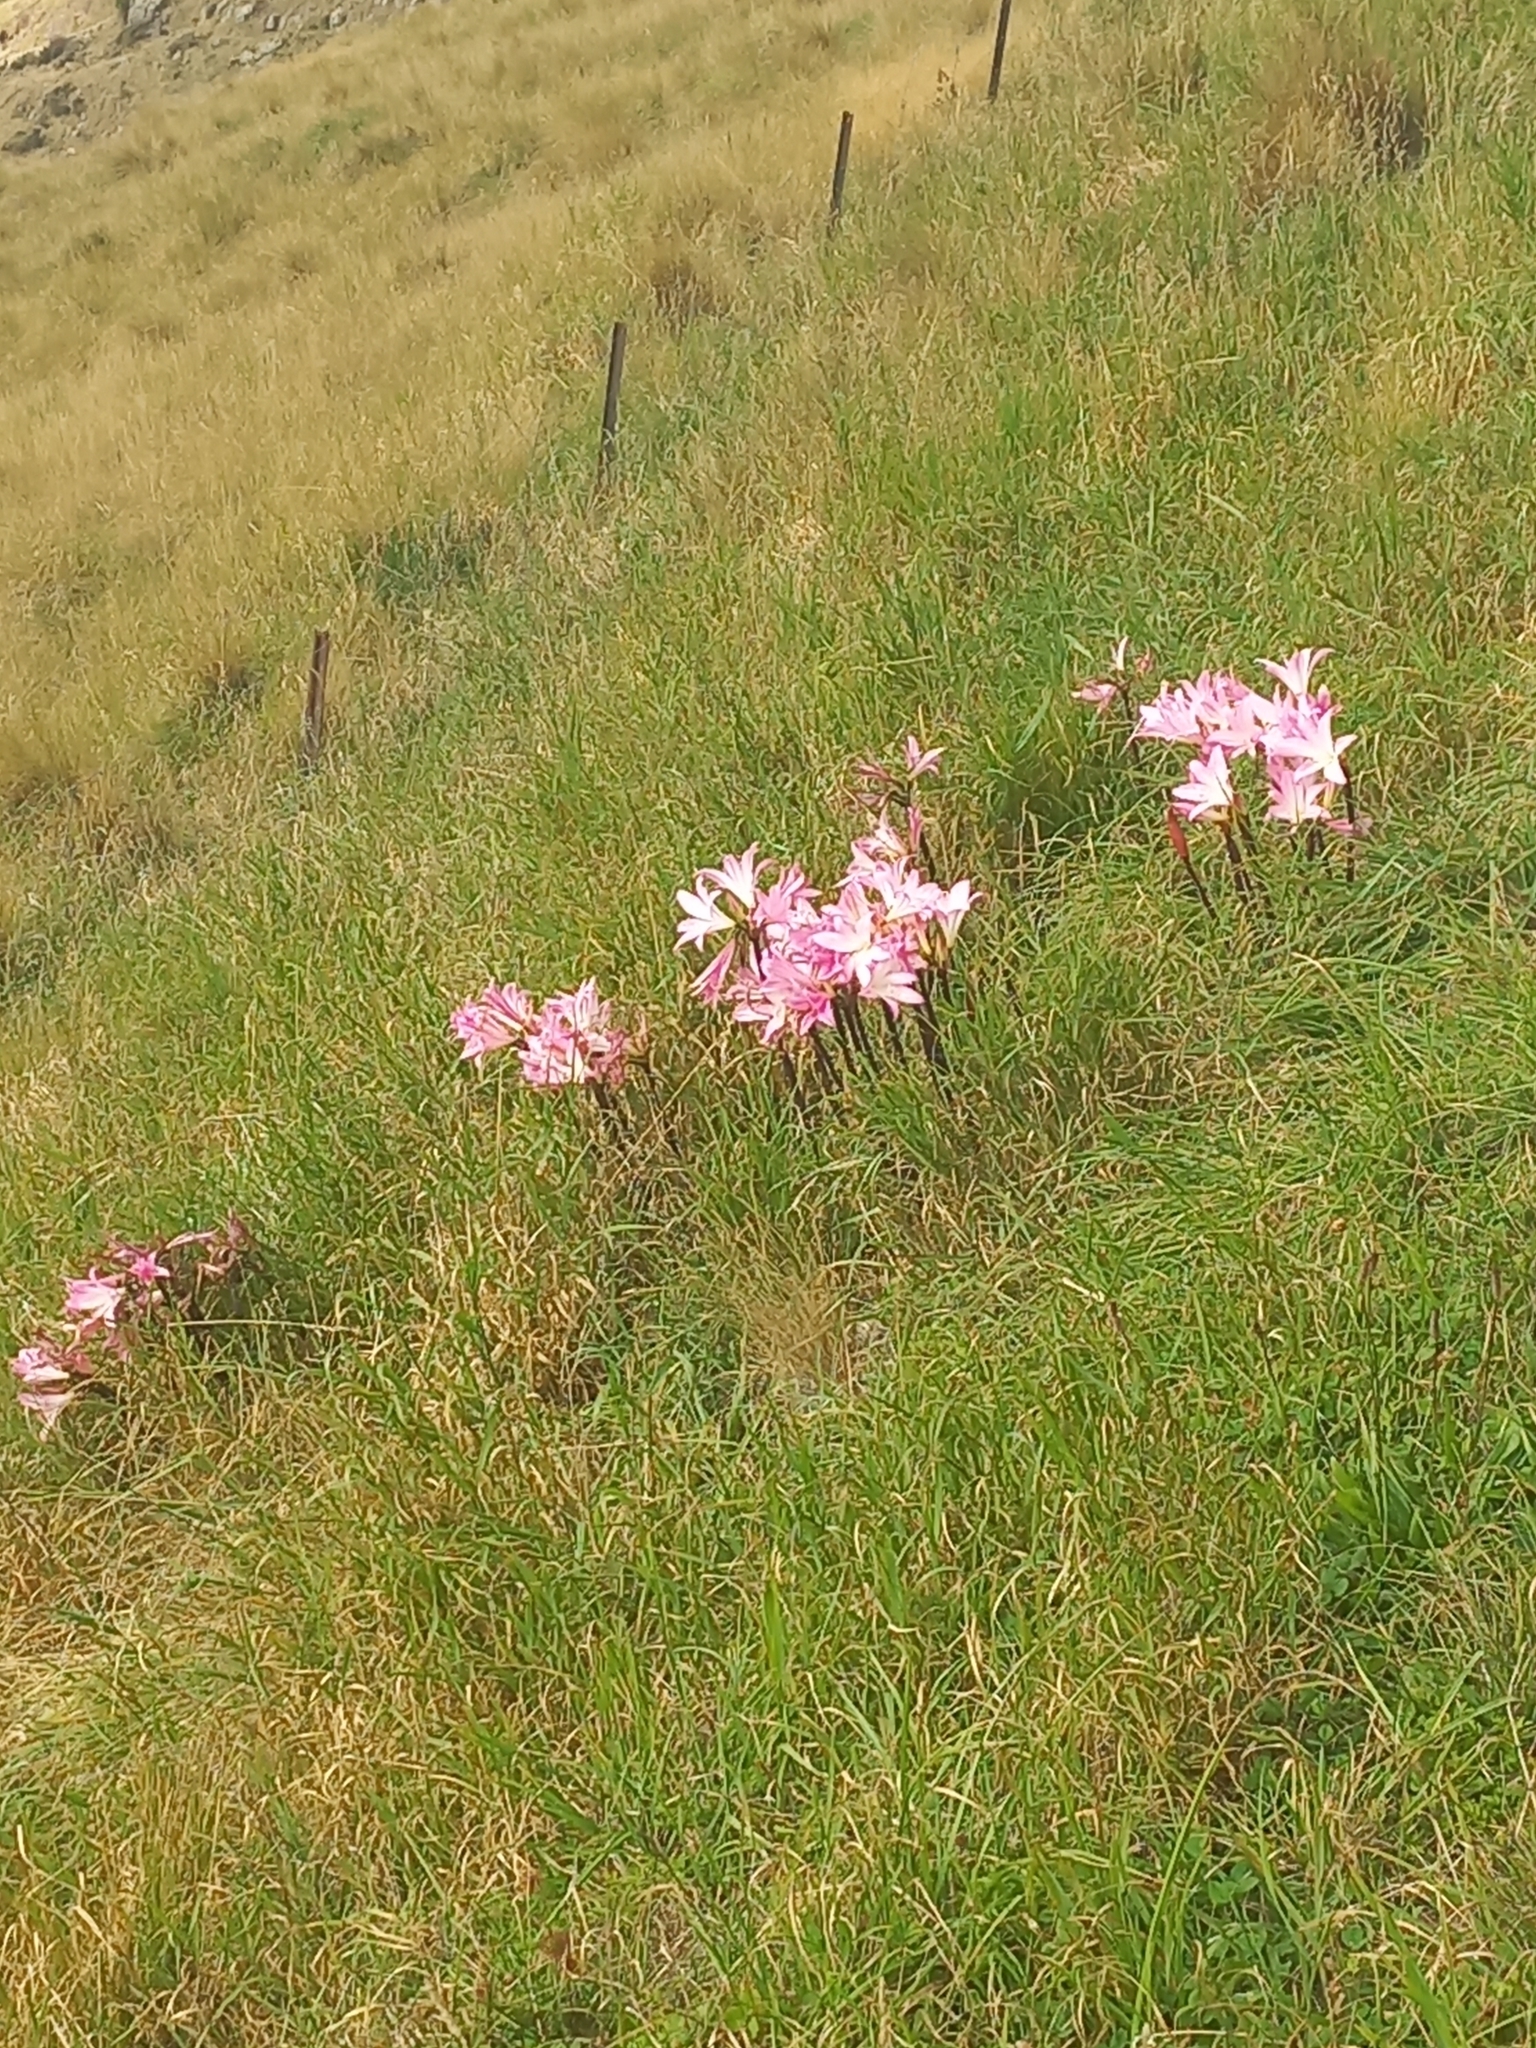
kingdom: Plantae
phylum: Tracheophyta
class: Liliopsida
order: Asparagales
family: Amaryllidaceae
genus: Amaryllis
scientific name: Amaryllis belladonna
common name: Jersey lily
